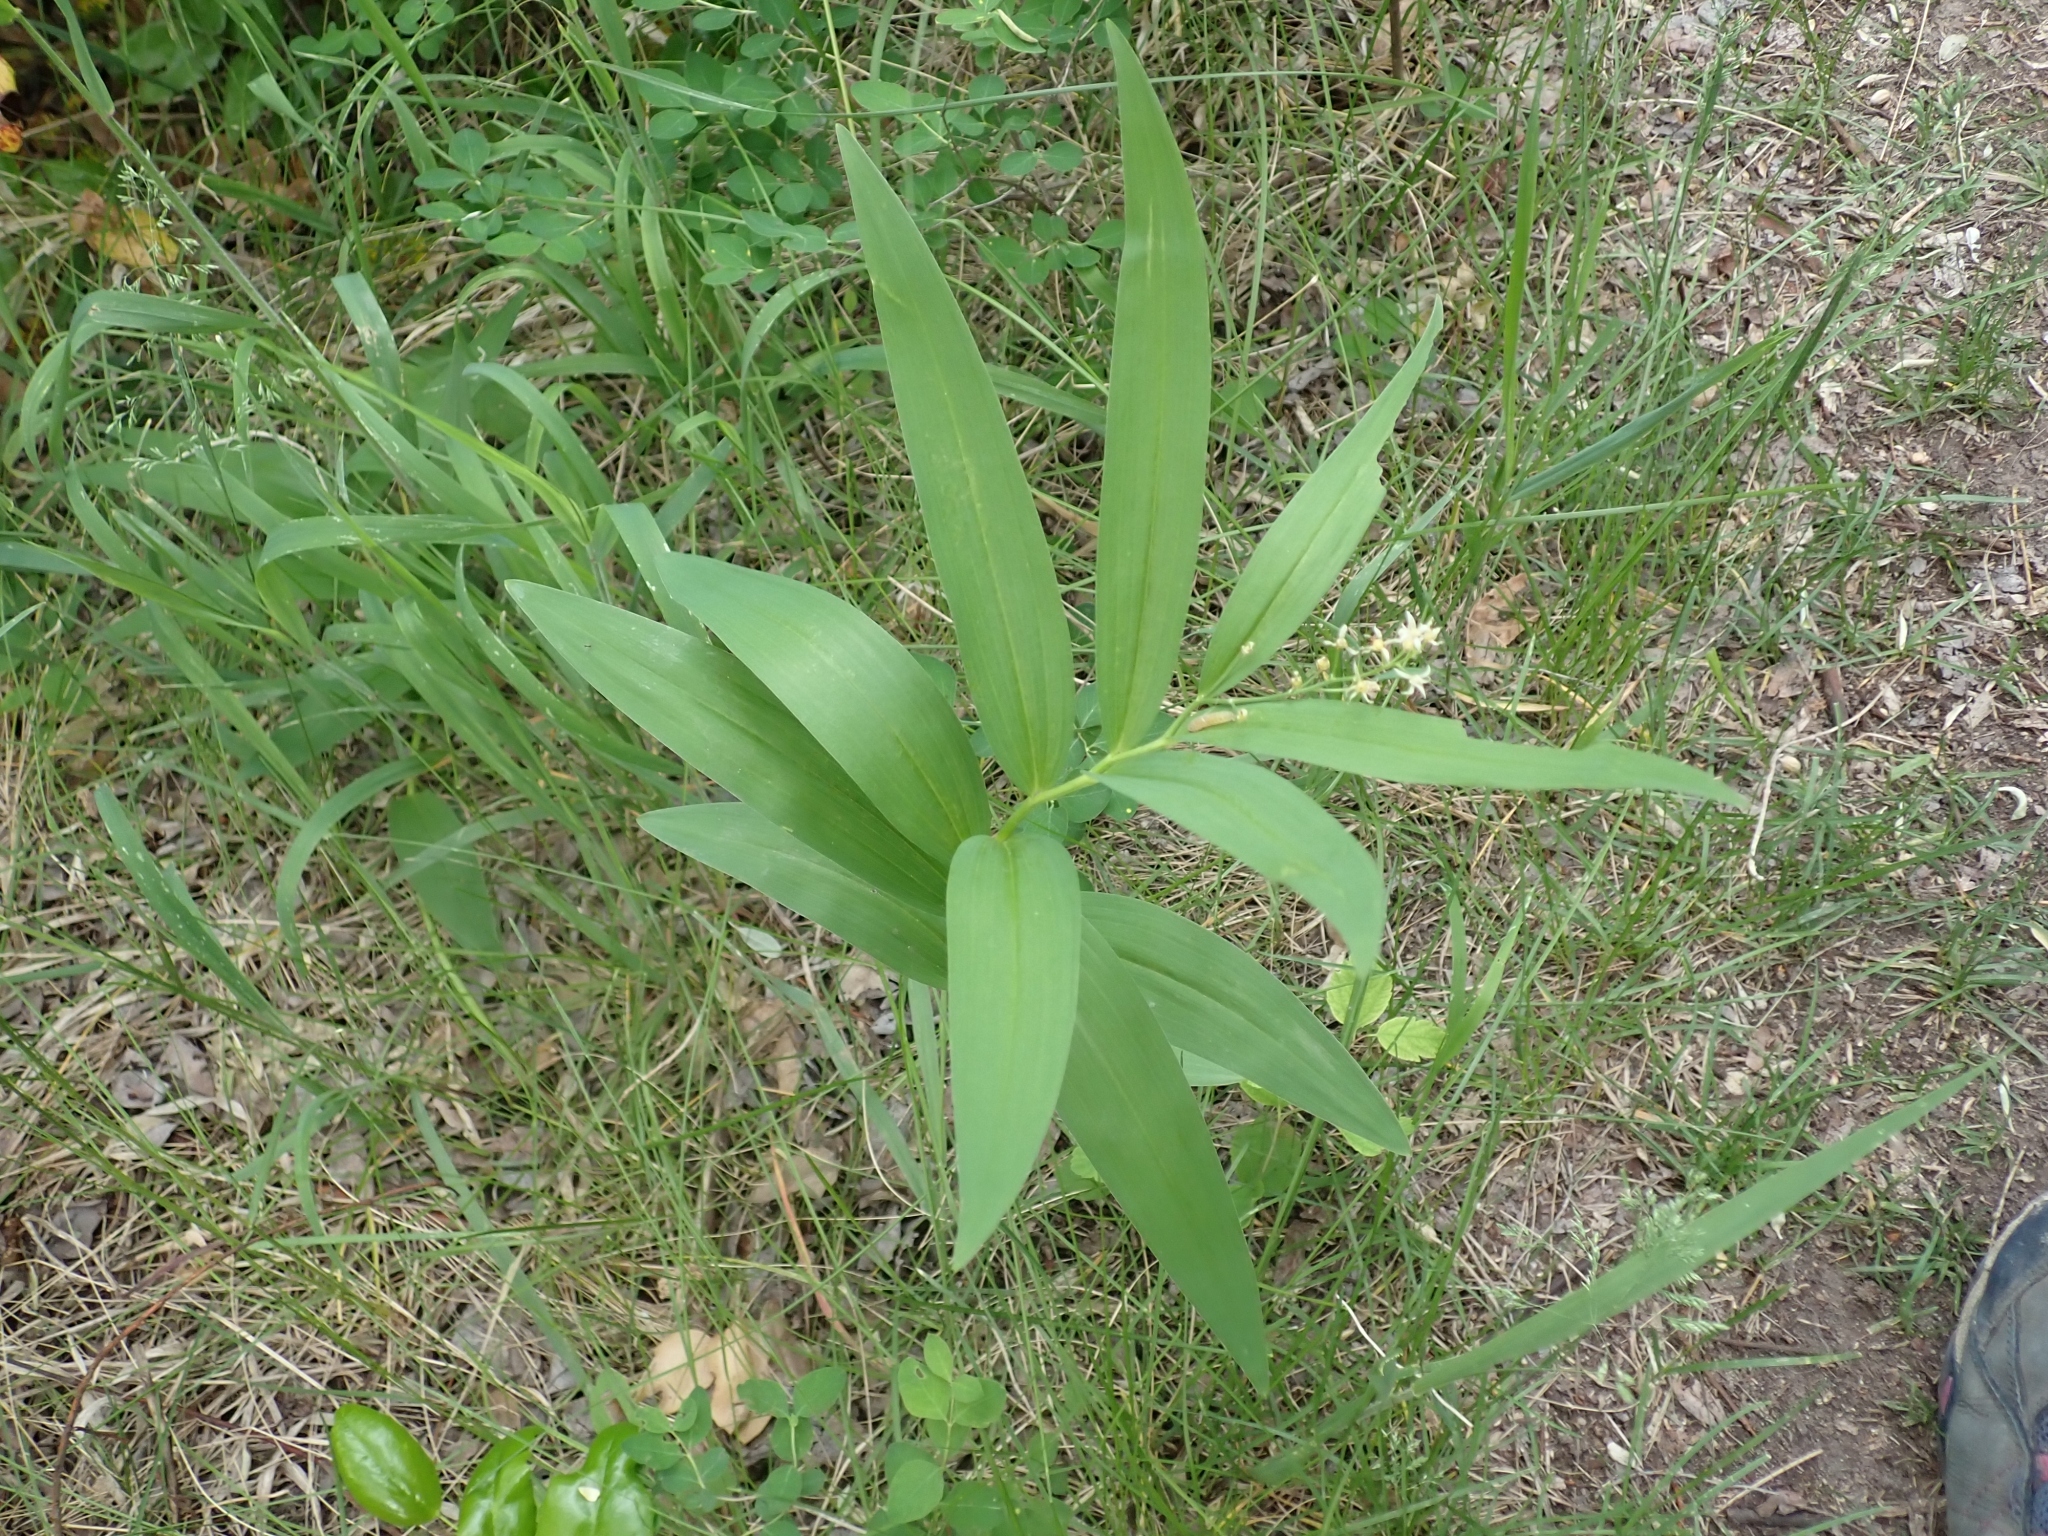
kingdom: Plantae
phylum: Tracheophyta
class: Liliopsida
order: Asparagales
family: Asparagaceae
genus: Maianthemum
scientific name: Maianthemum stellatum
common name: Little false solomon's seal
